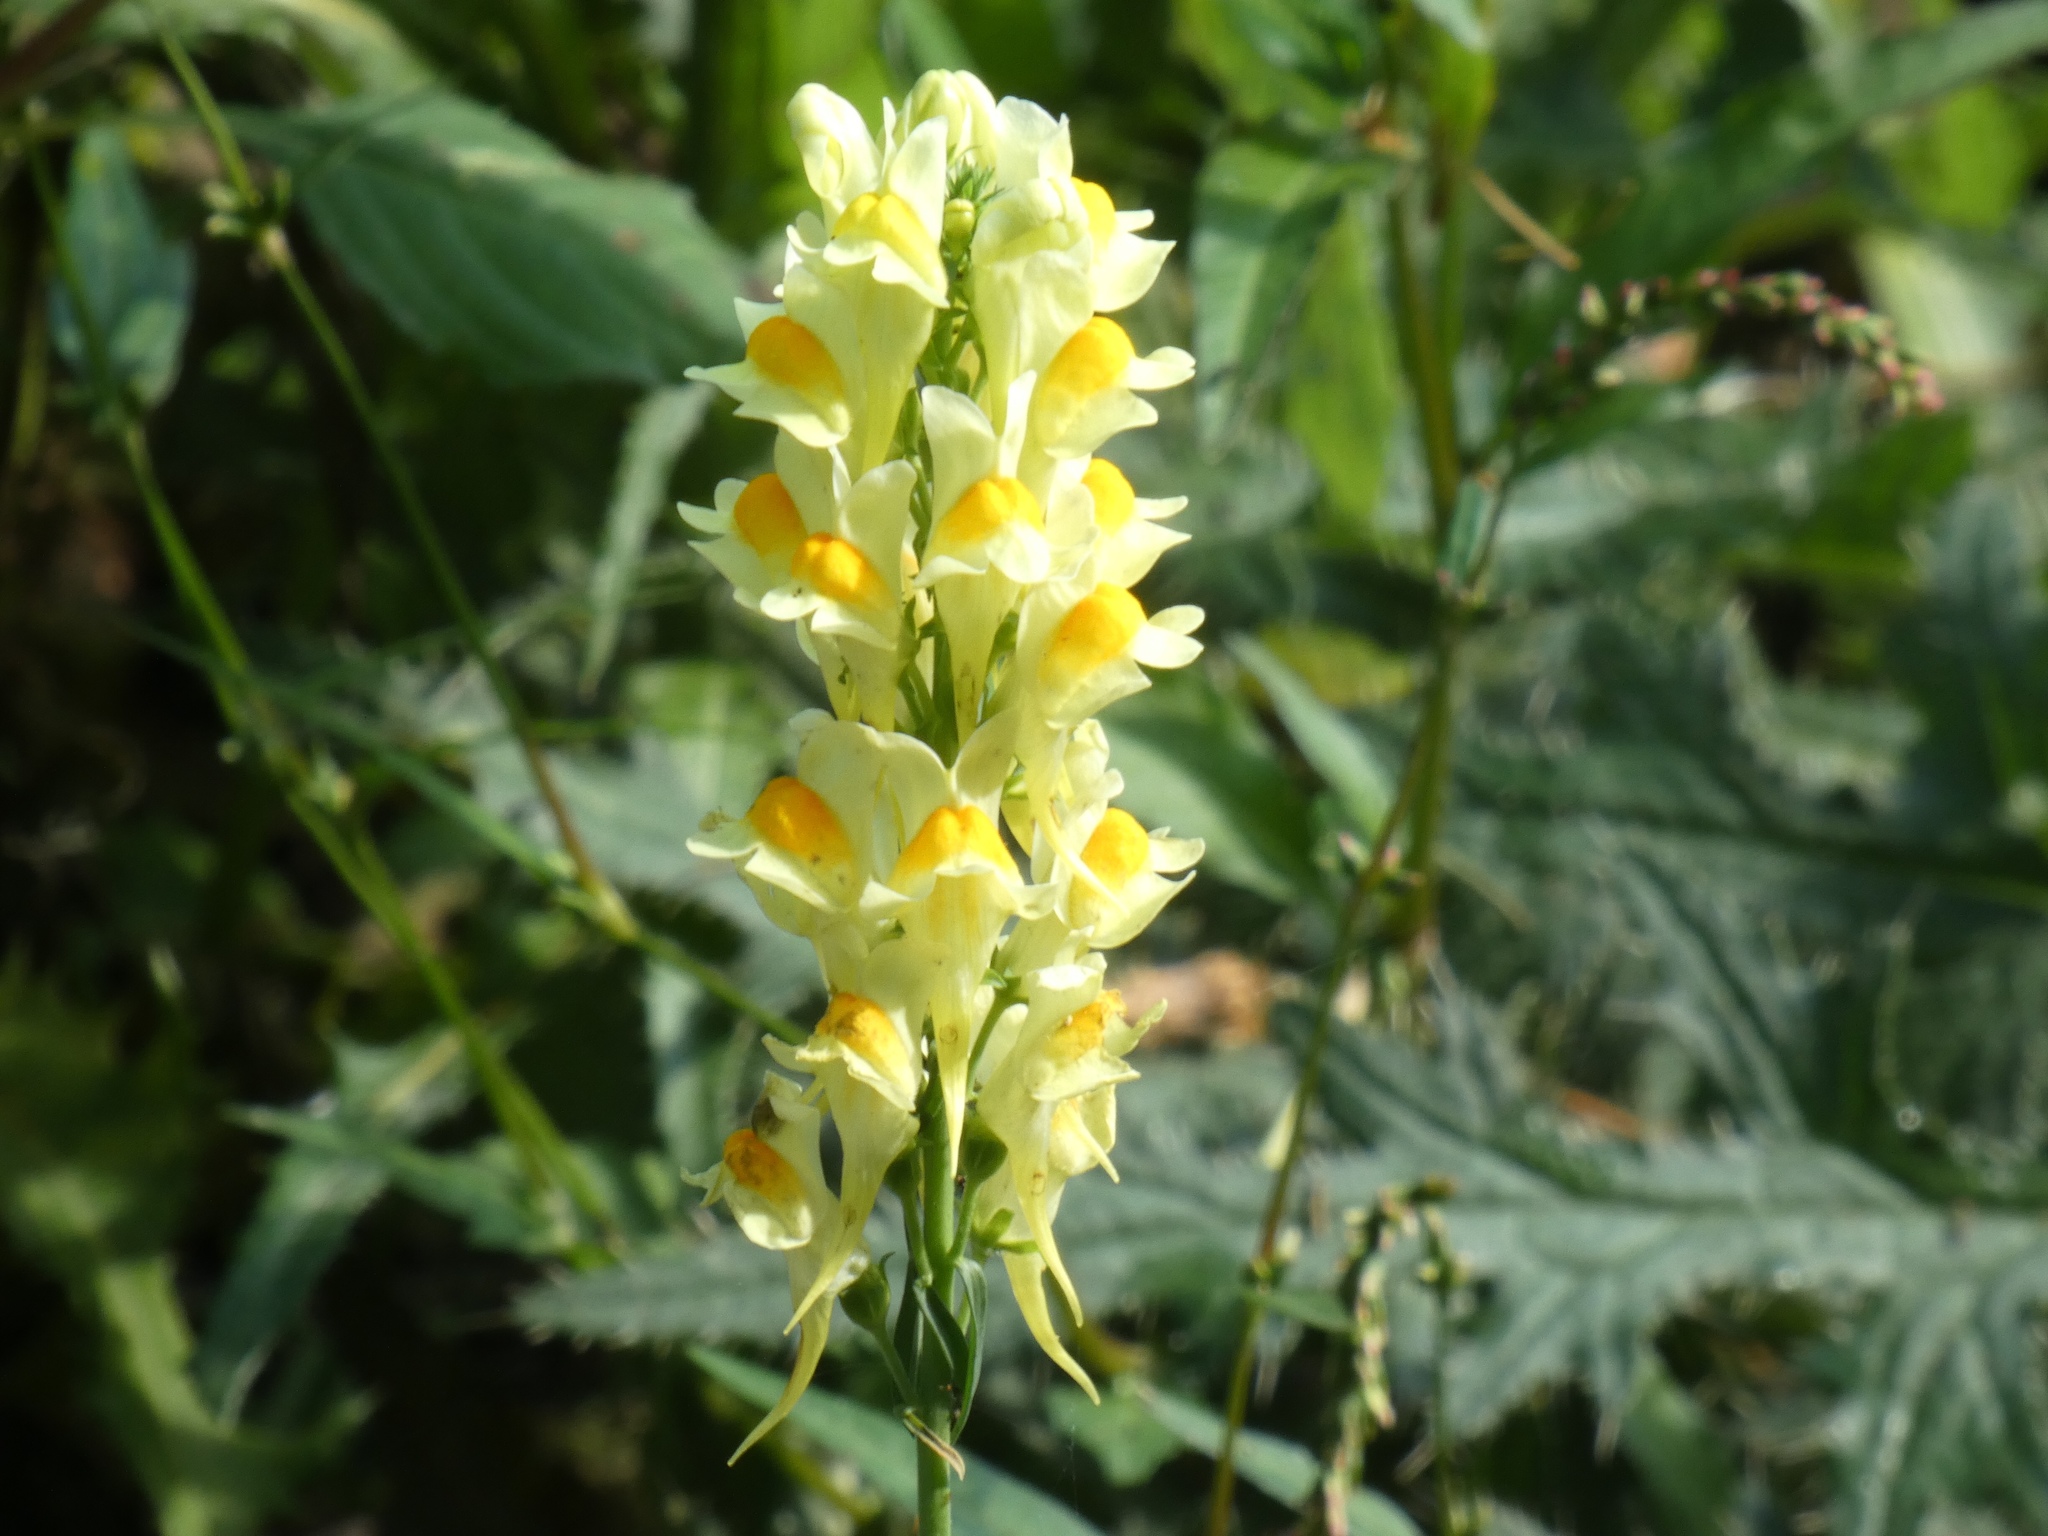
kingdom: Plantae
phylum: Tracheophyta
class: Magnoliopsida
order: Lamiales
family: Plantaginaceae
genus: Linaria
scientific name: Linaria vulgaris
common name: Butter and eggs
